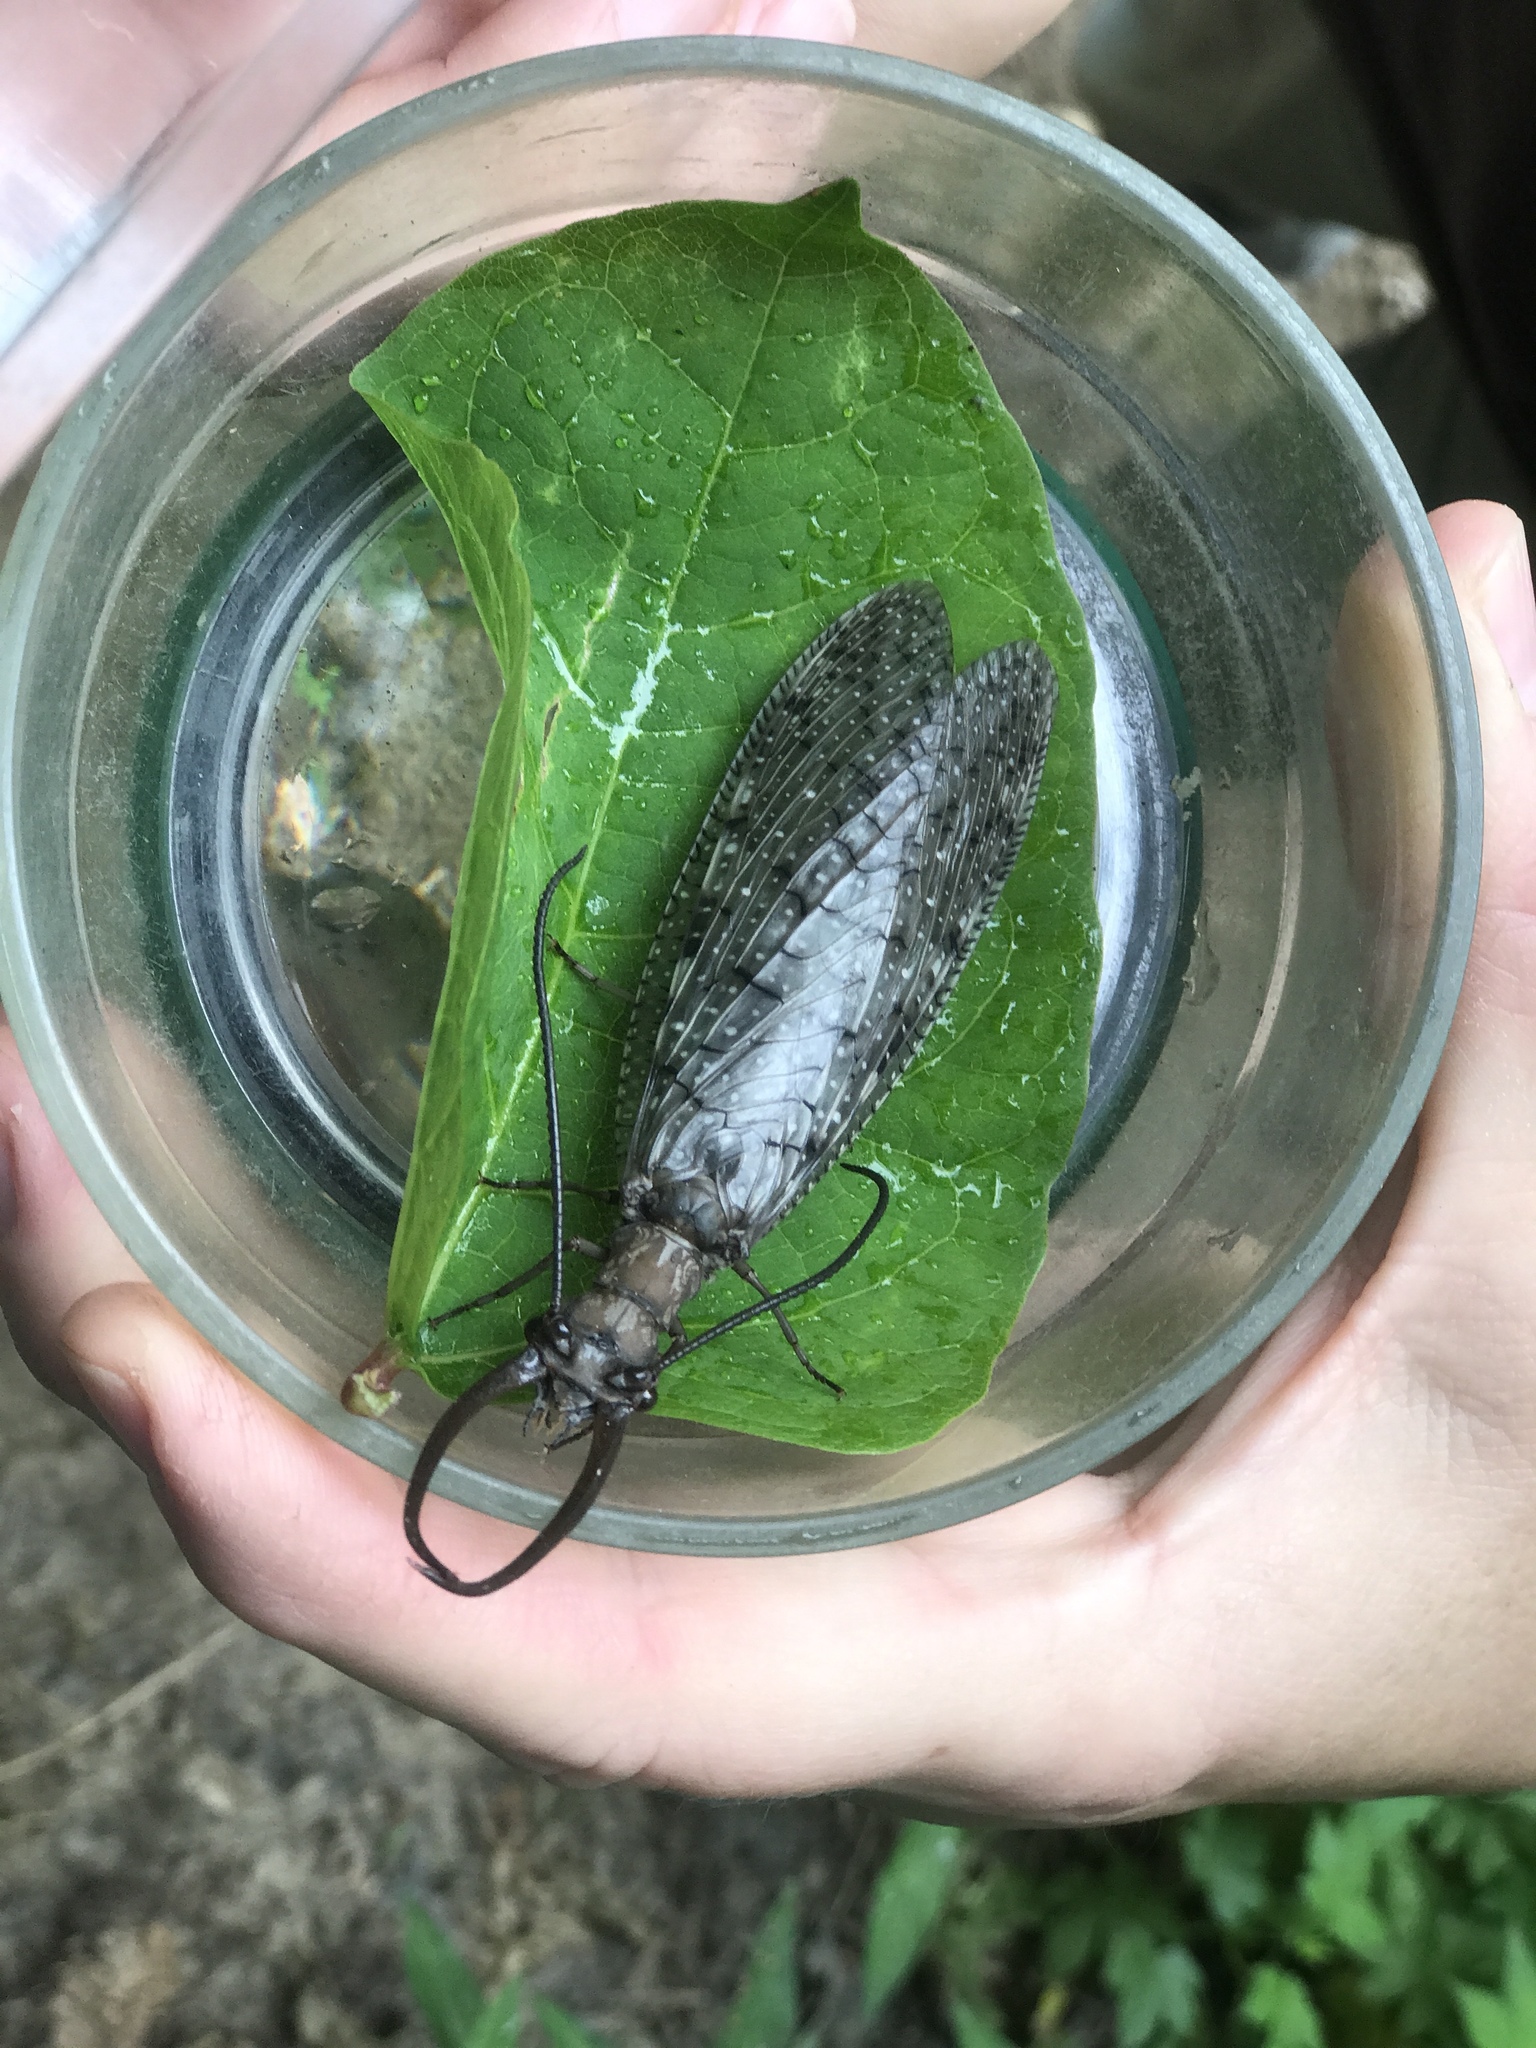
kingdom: Animalia
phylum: Arthropoda
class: Insecta
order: Megaloptera
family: Corydalidae
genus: Corydalus
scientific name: Corydalus cornutus
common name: Dobsonfly
